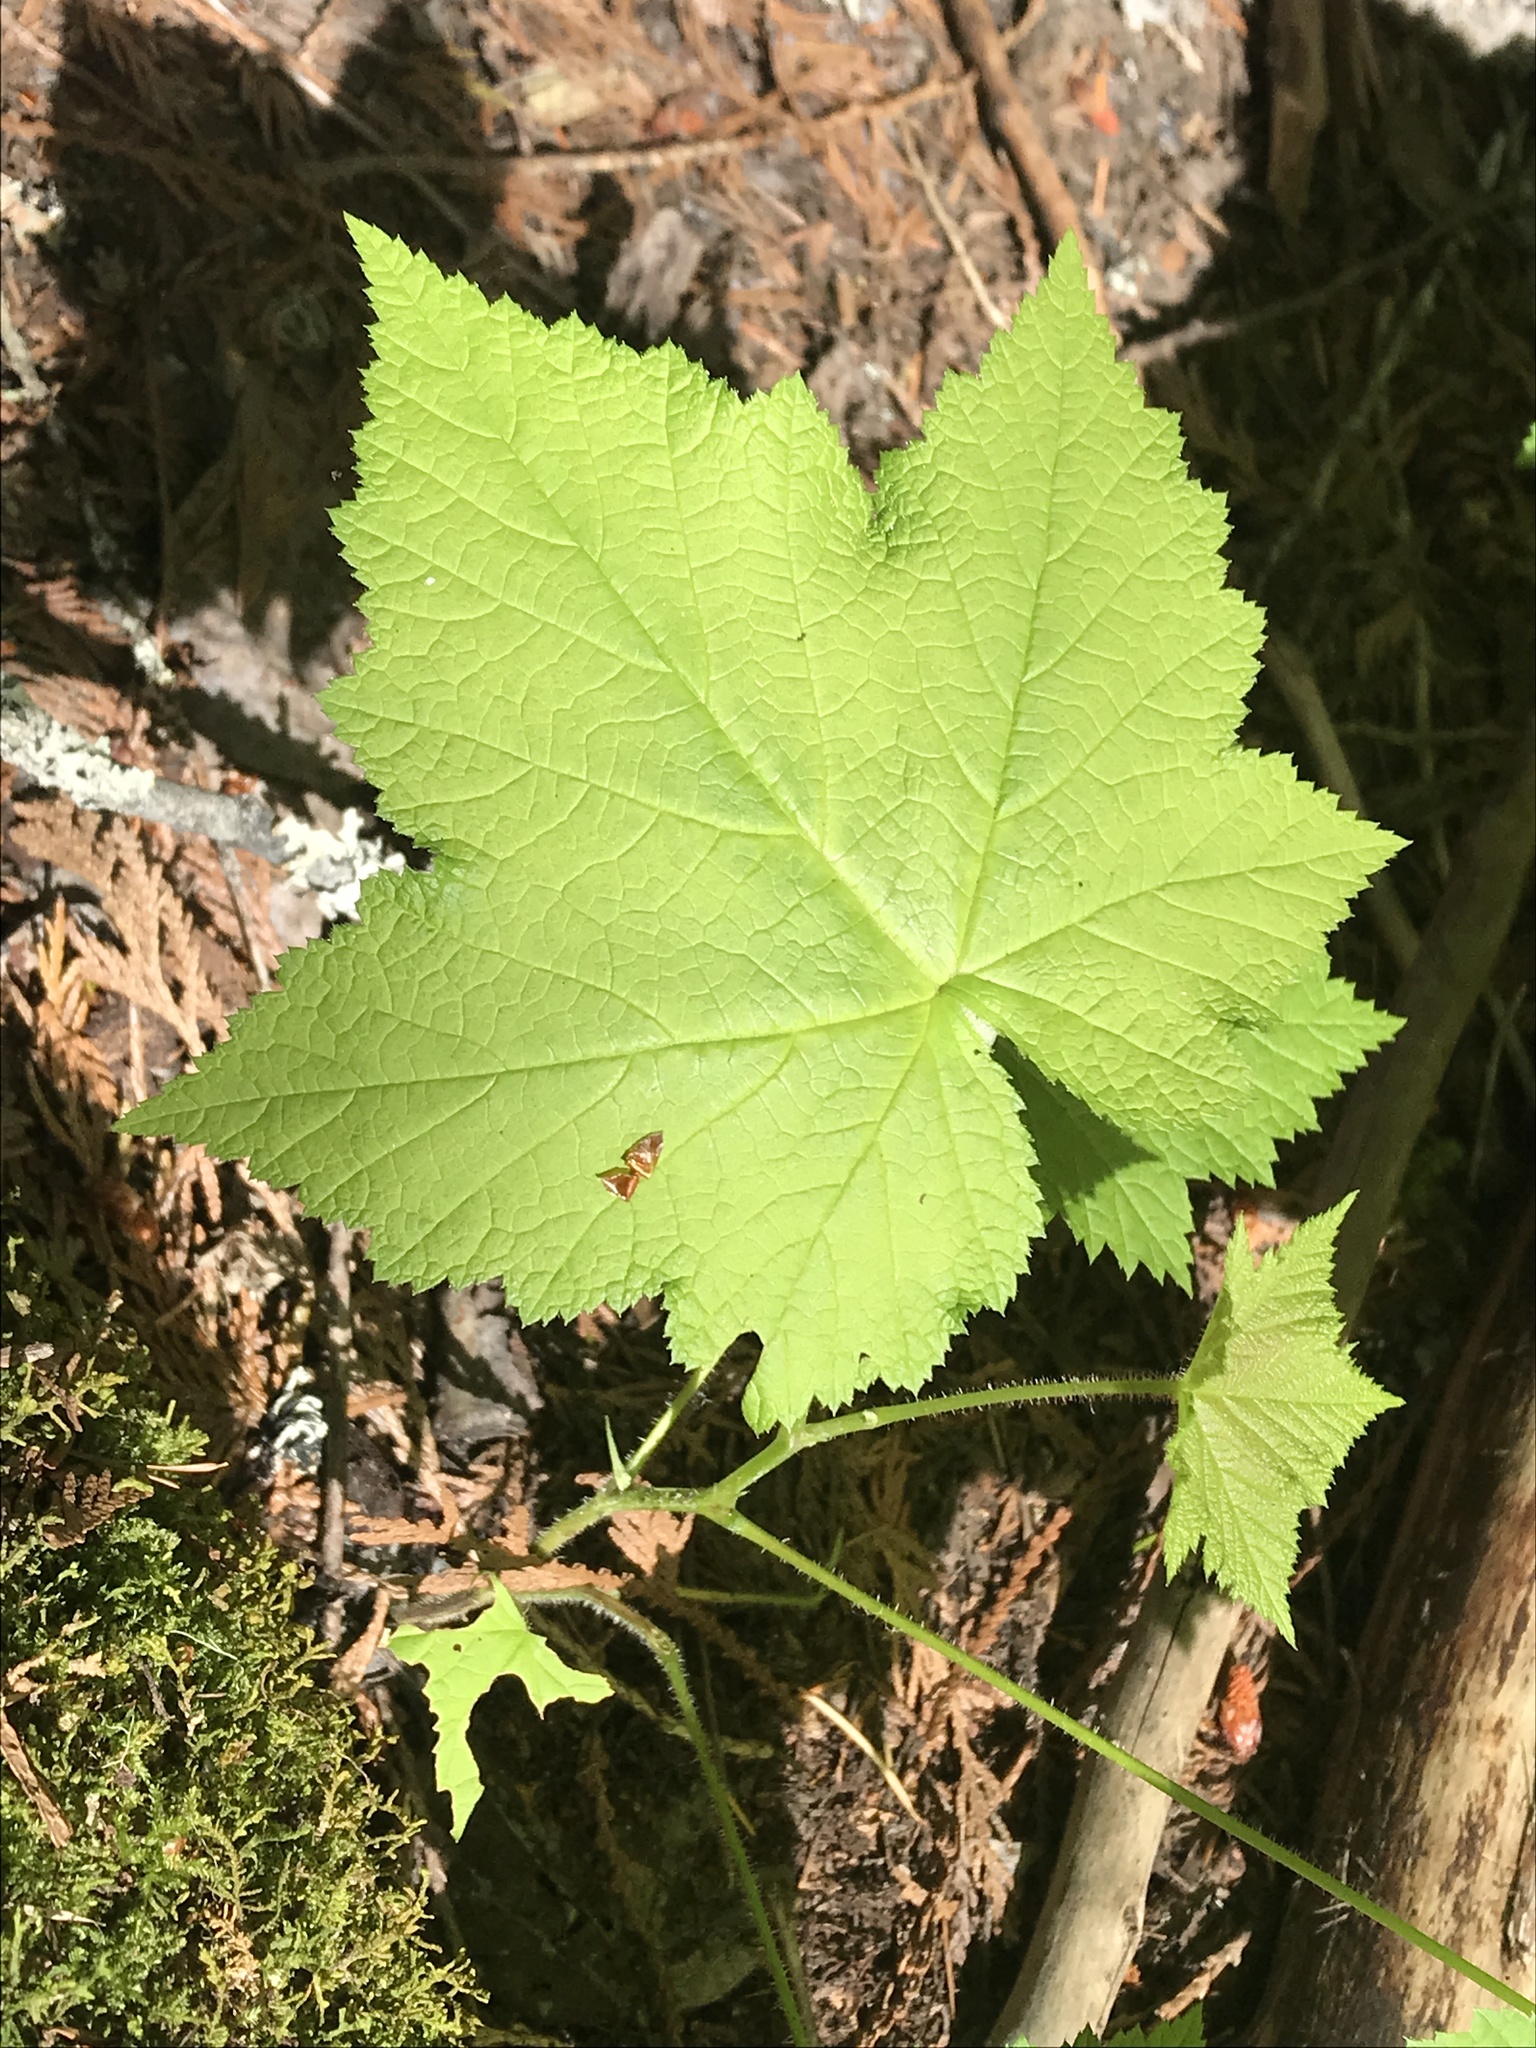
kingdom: Plantae
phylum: Tracheophyta
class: Magnoliopsida
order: Rosales
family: Rosaceae
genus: Rubus
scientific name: Rubus parviflorus
